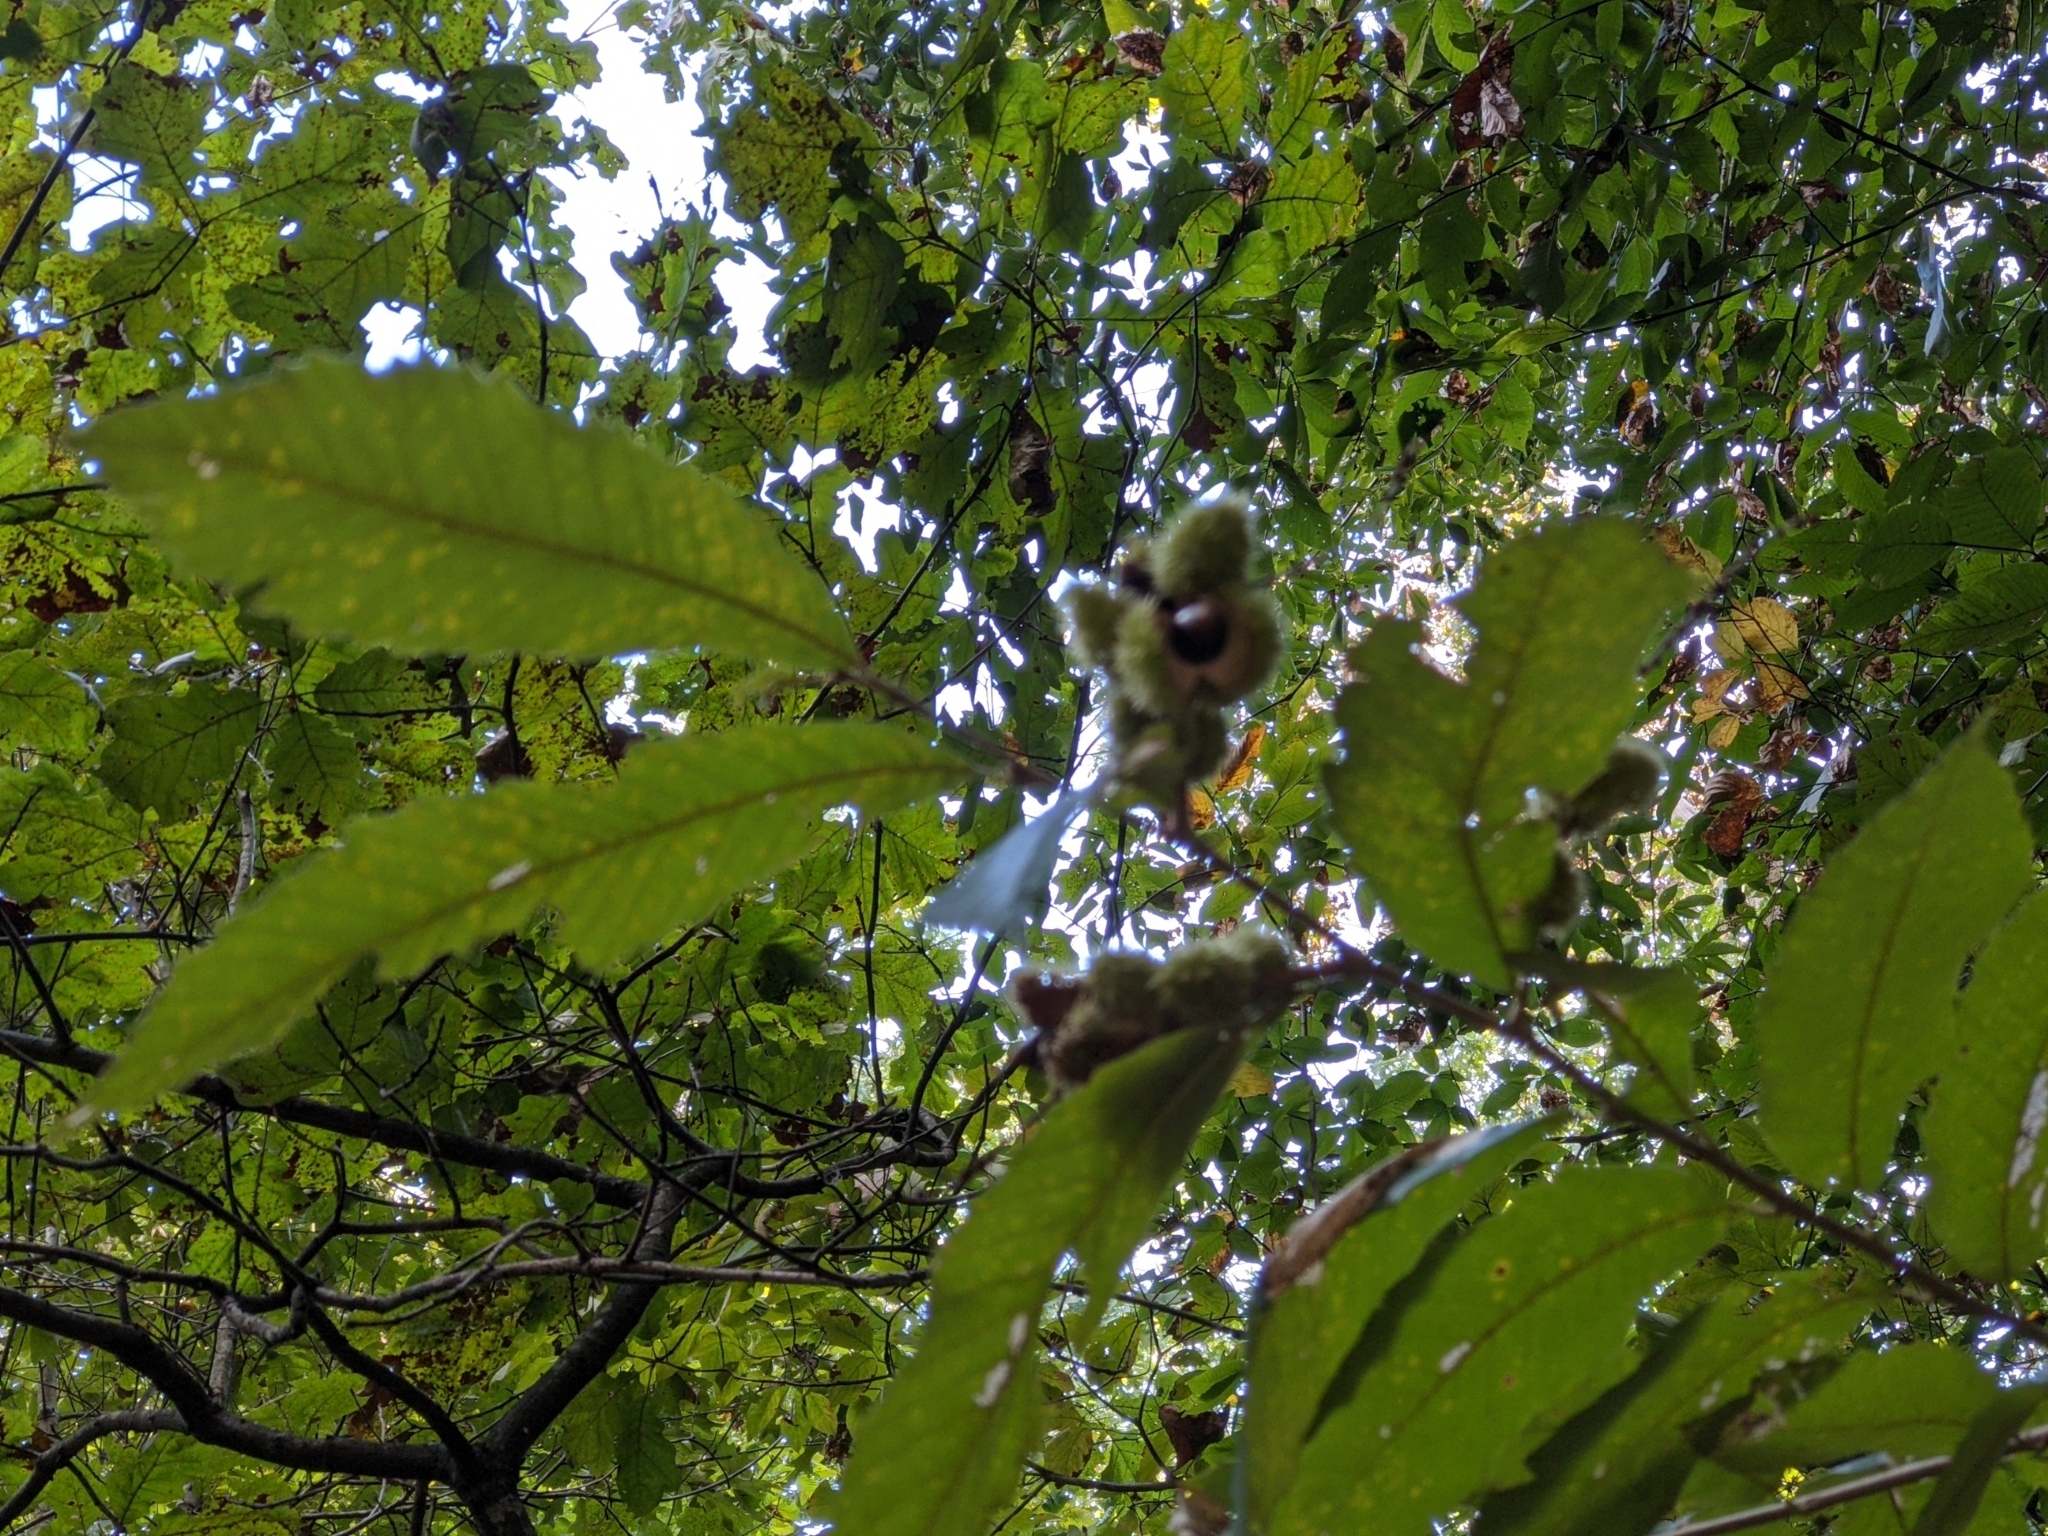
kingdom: Plantae
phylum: Tracheophyta
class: Magnoliopsida
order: Fagales
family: Fagaceae
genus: Castanea
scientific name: Castanea pumila
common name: Chinkapin
